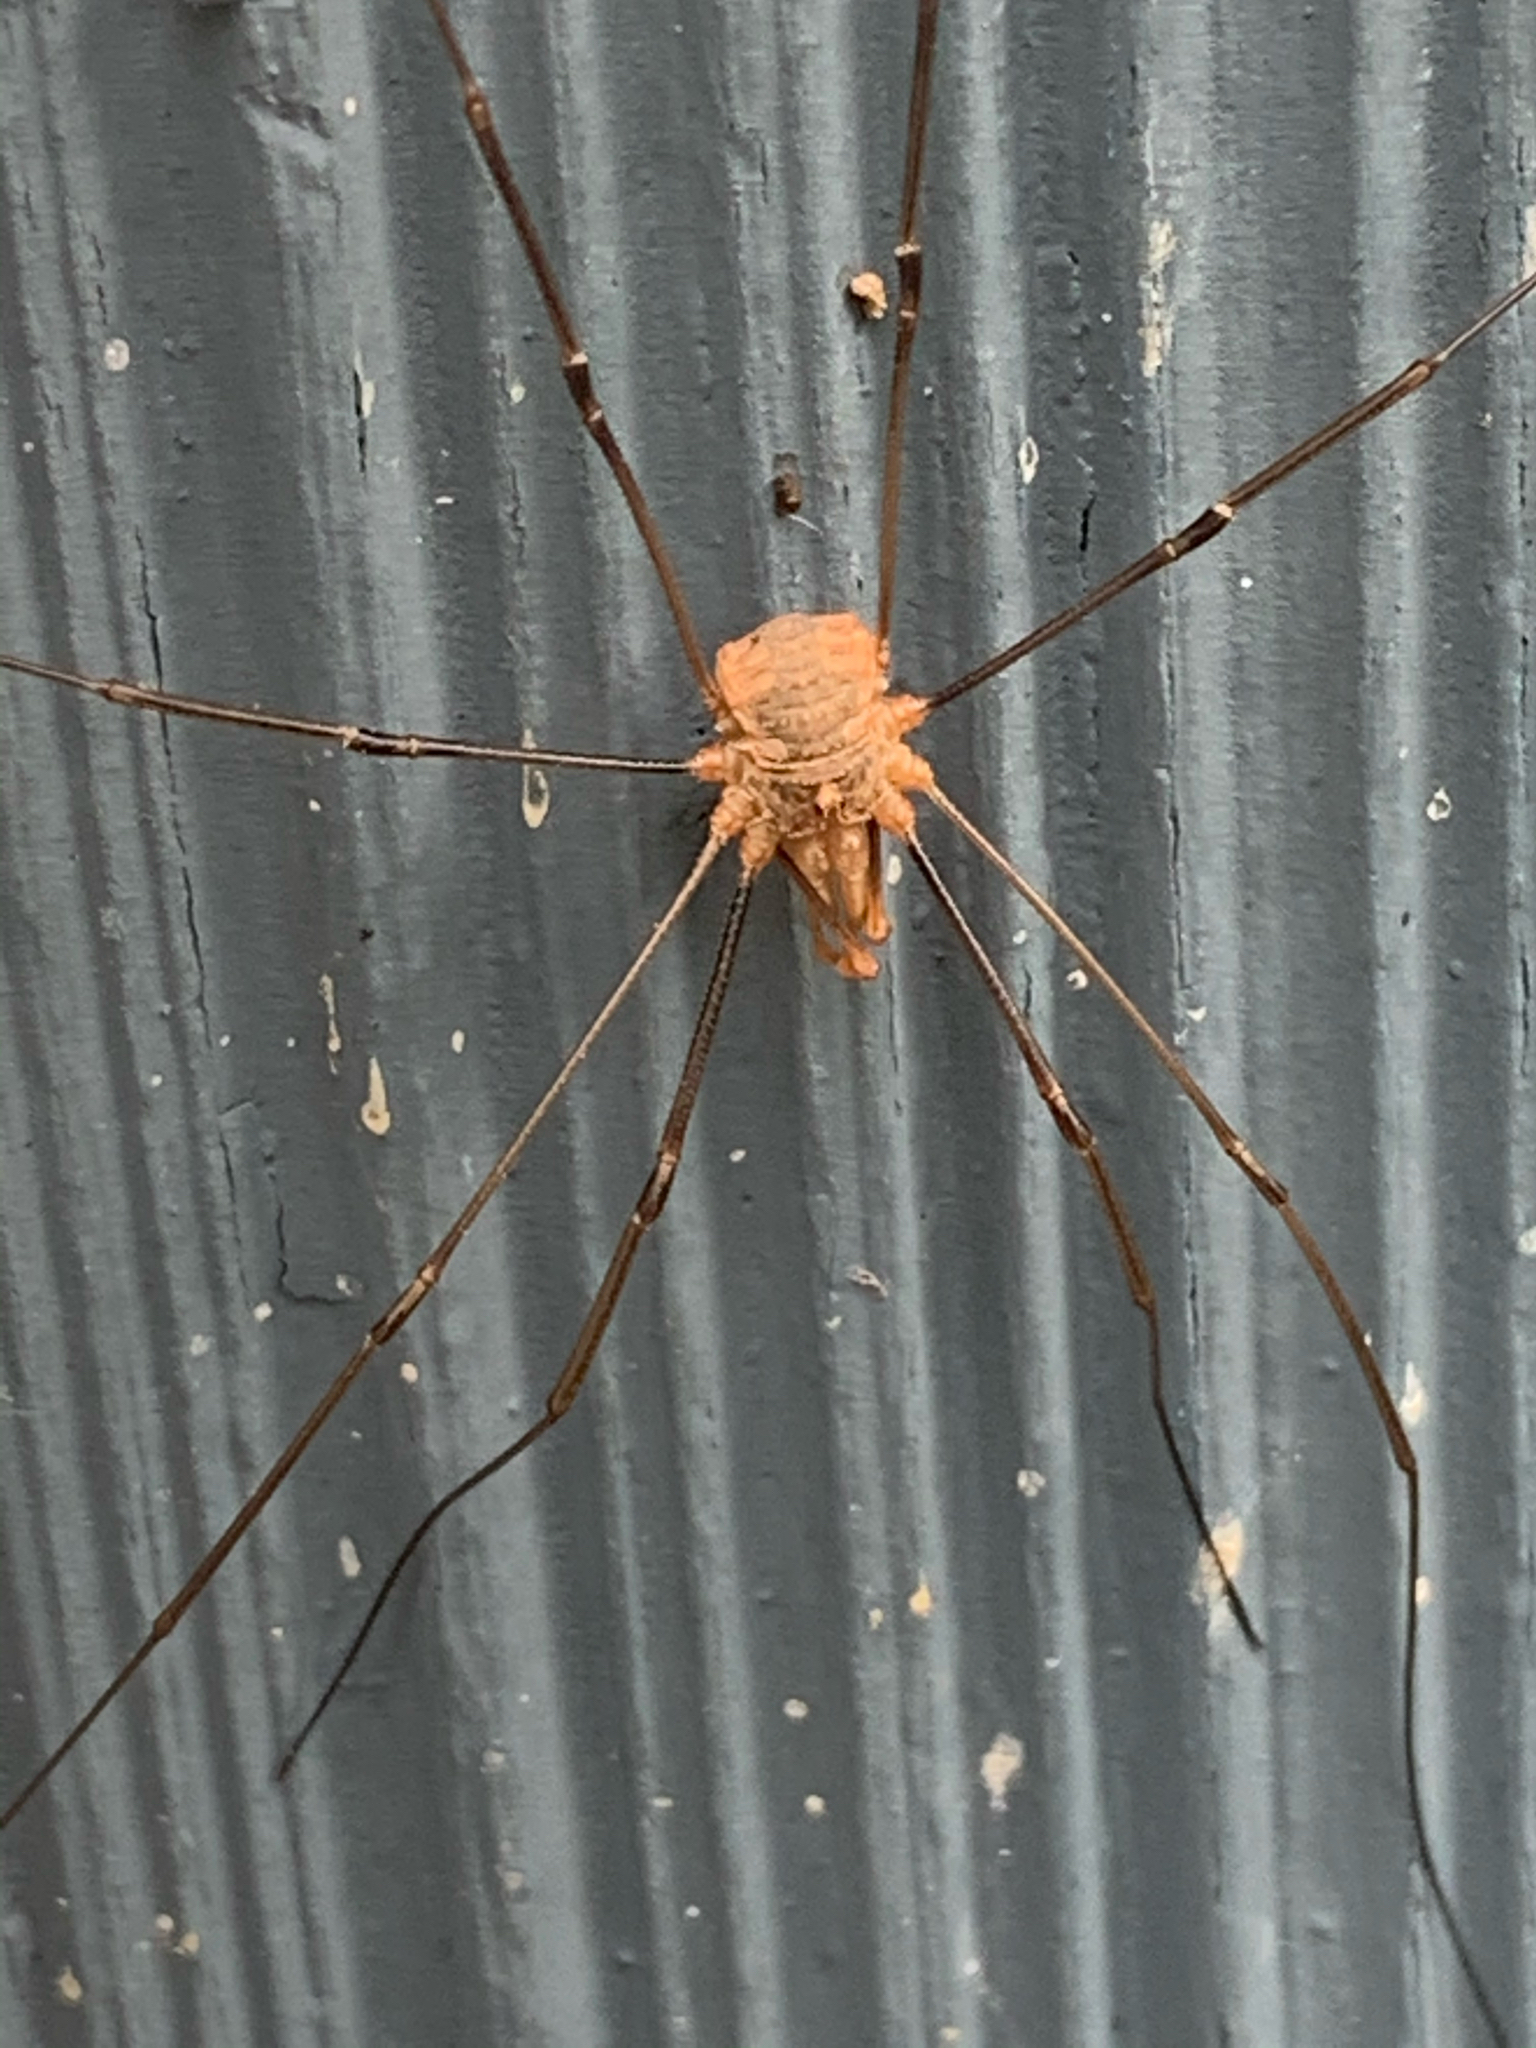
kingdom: Animalia
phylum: Arthropoda
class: Arachnida
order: Opiliones
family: Phalangiidae
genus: Phalangium
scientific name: Phalangium opilio
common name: Daddy longleg
